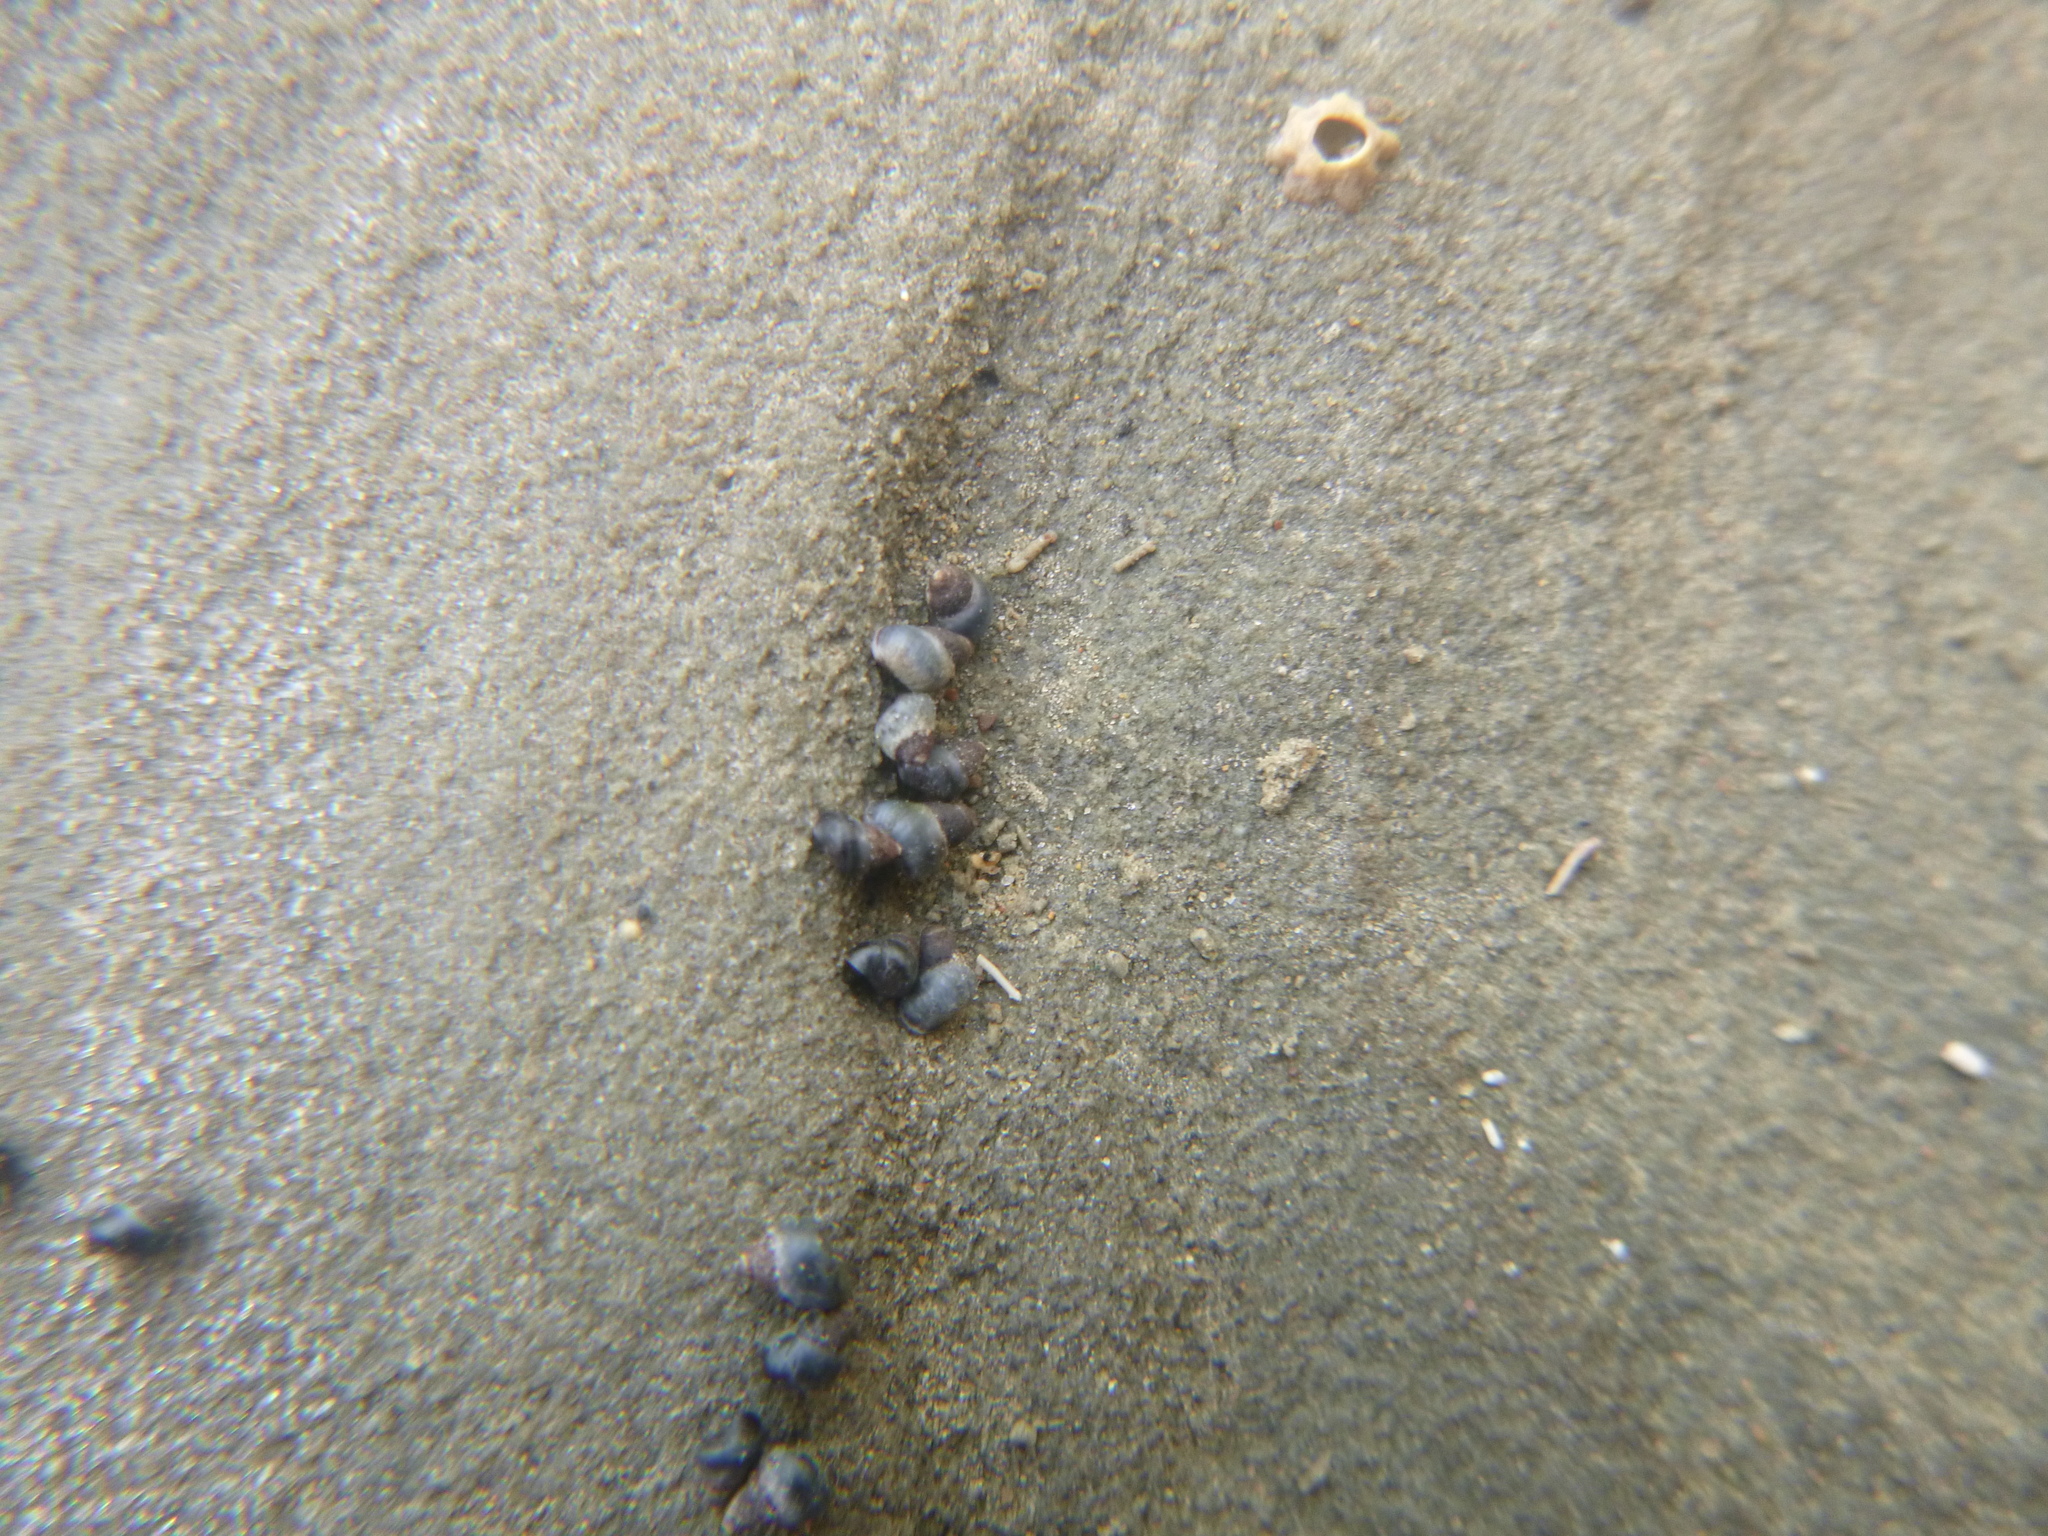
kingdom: Animalia
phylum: Mollusca
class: Gastropoda
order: Littorinimorpha
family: Littorinidae
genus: Austrolittorina
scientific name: Austrolittorina antipodum
